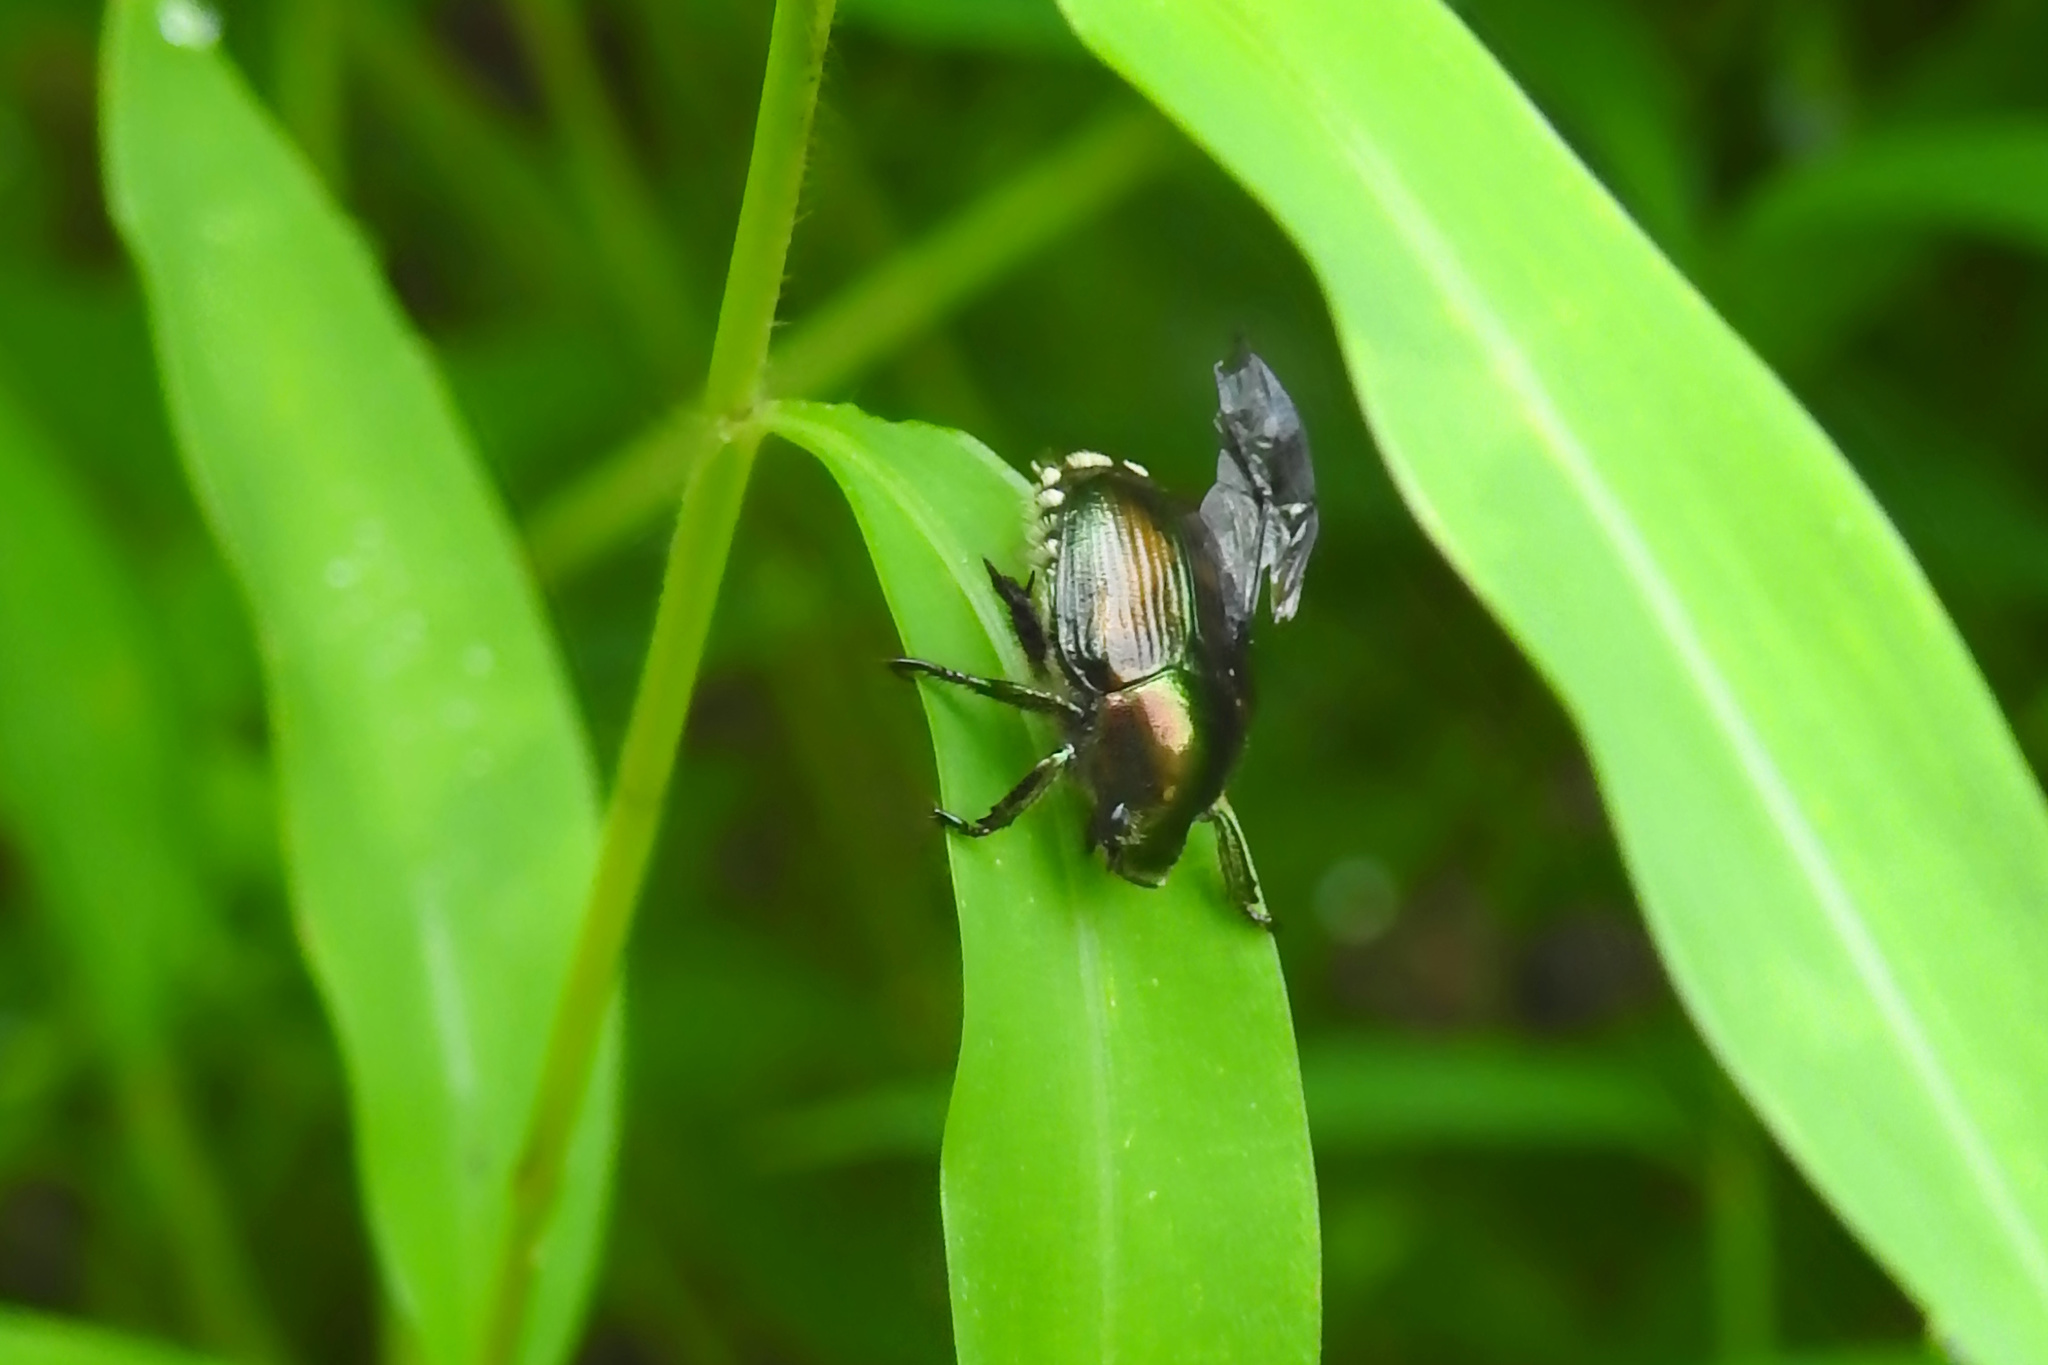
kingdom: Animalia
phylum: Arthropoda
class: Insecta
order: Coleoptera
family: Scarabaeidae
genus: Popillia
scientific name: Popillia japonica
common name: Japanese beetle
